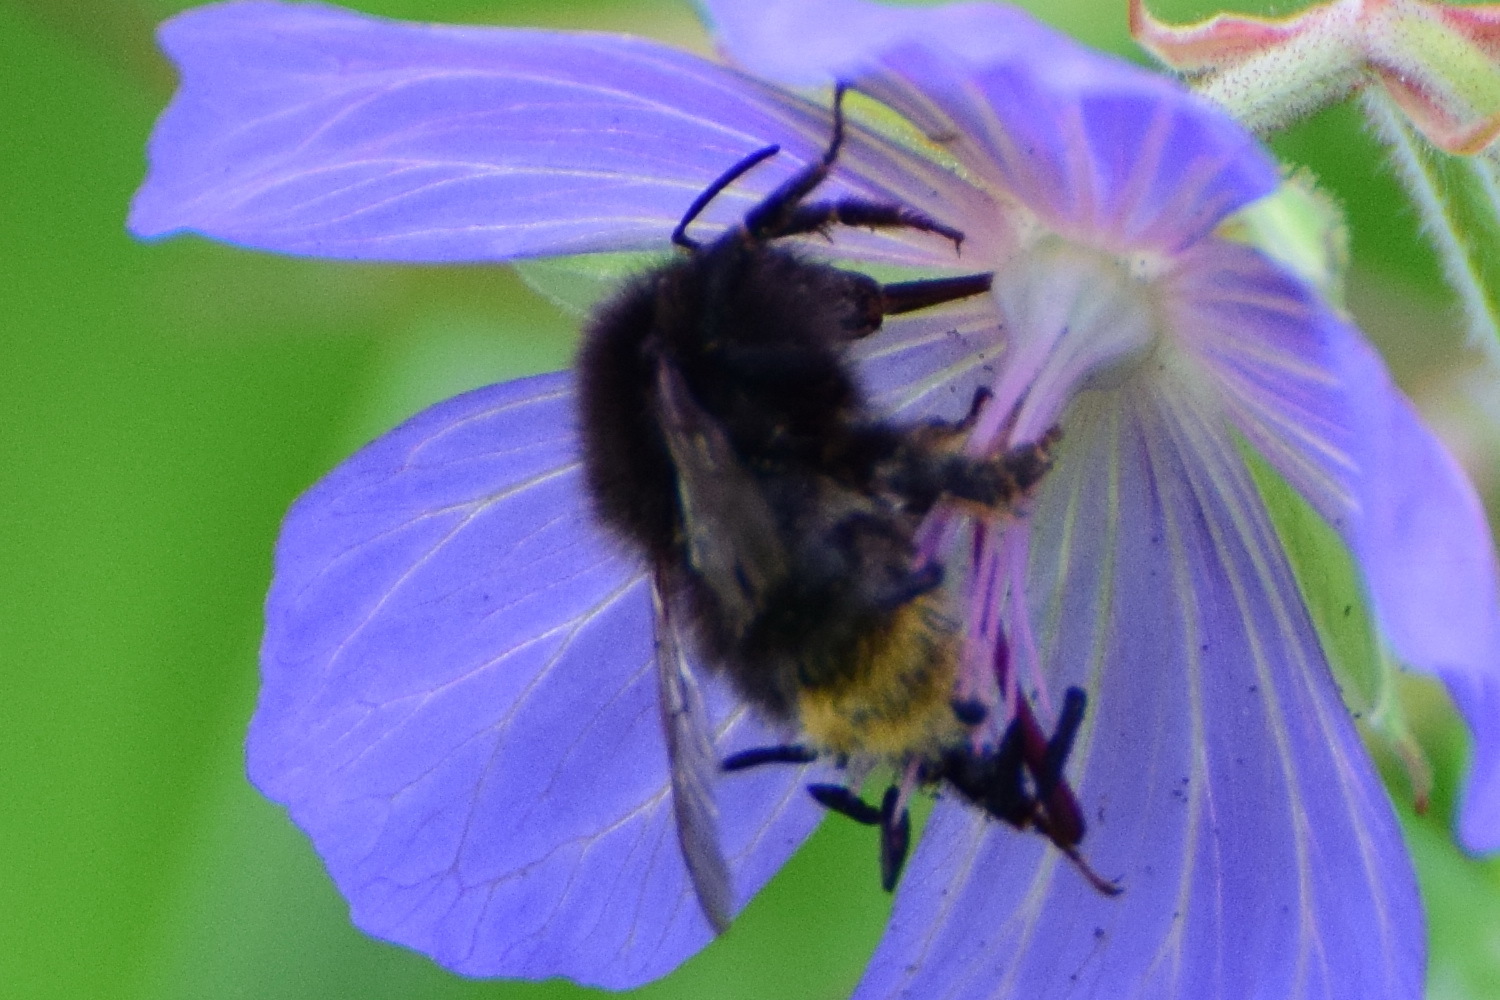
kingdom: Animalia
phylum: Arthropoda
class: Insecta
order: Hymenoptera
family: Apidae
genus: Bombus
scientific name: Bombus ruderarius
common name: Red-shanked carder-bee
